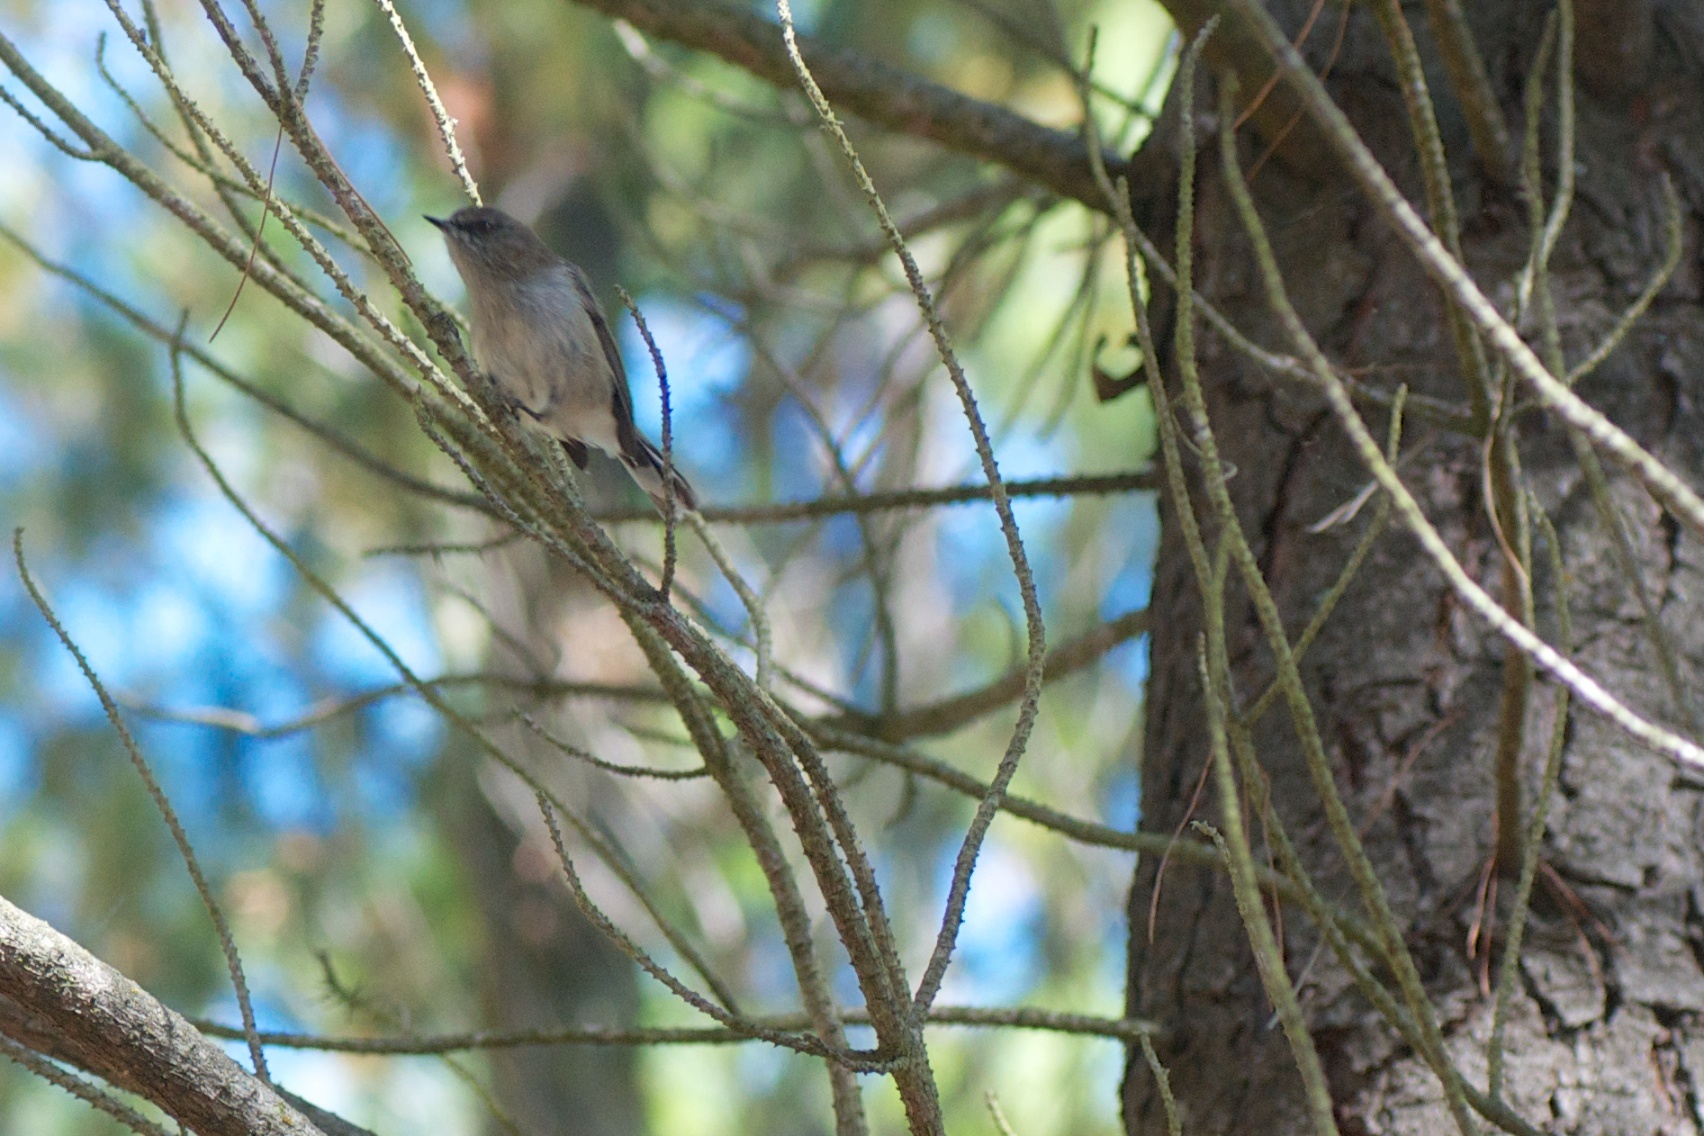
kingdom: Animalia
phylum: Chordata
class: Aves
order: Passeriformes
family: Acanthizidae
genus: Gerygone
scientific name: Gerygone igata
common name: Grey gerygone
